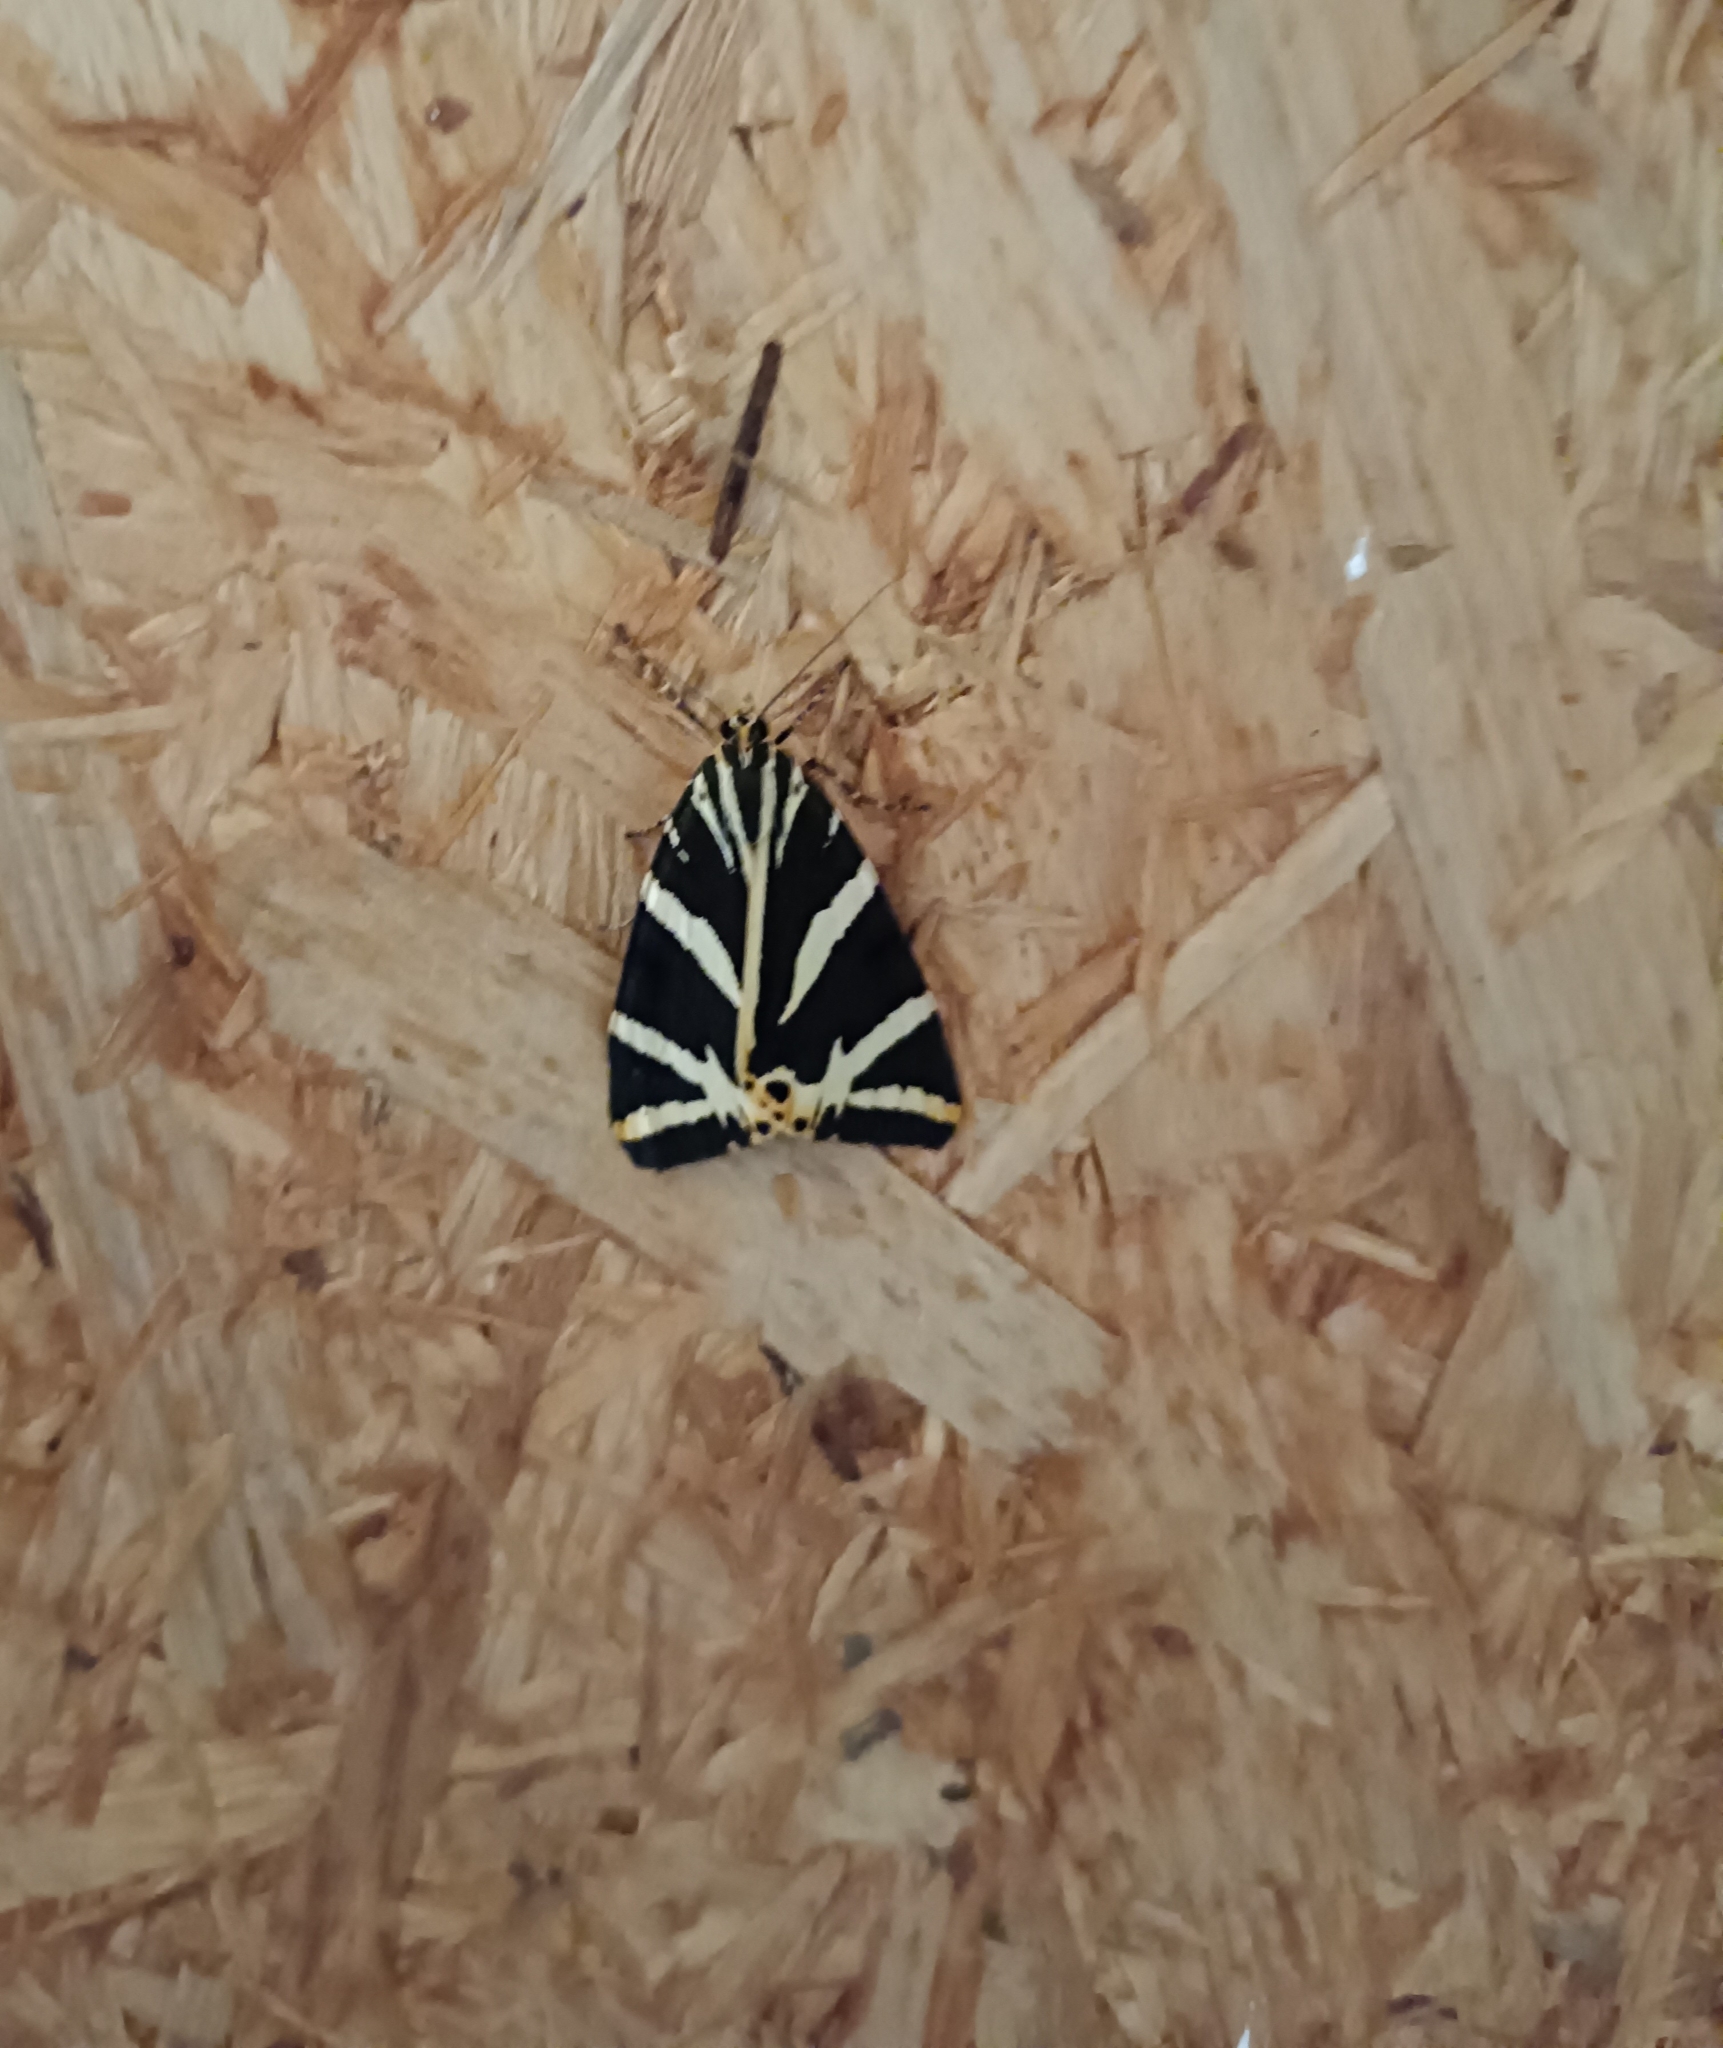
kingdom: Animalia
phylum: Arthropoda
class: Insecta
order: Lepidoptera
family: Erebidae
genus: Euplagia
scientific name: Euplagia quadripunctaria
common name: Jersey tiger
